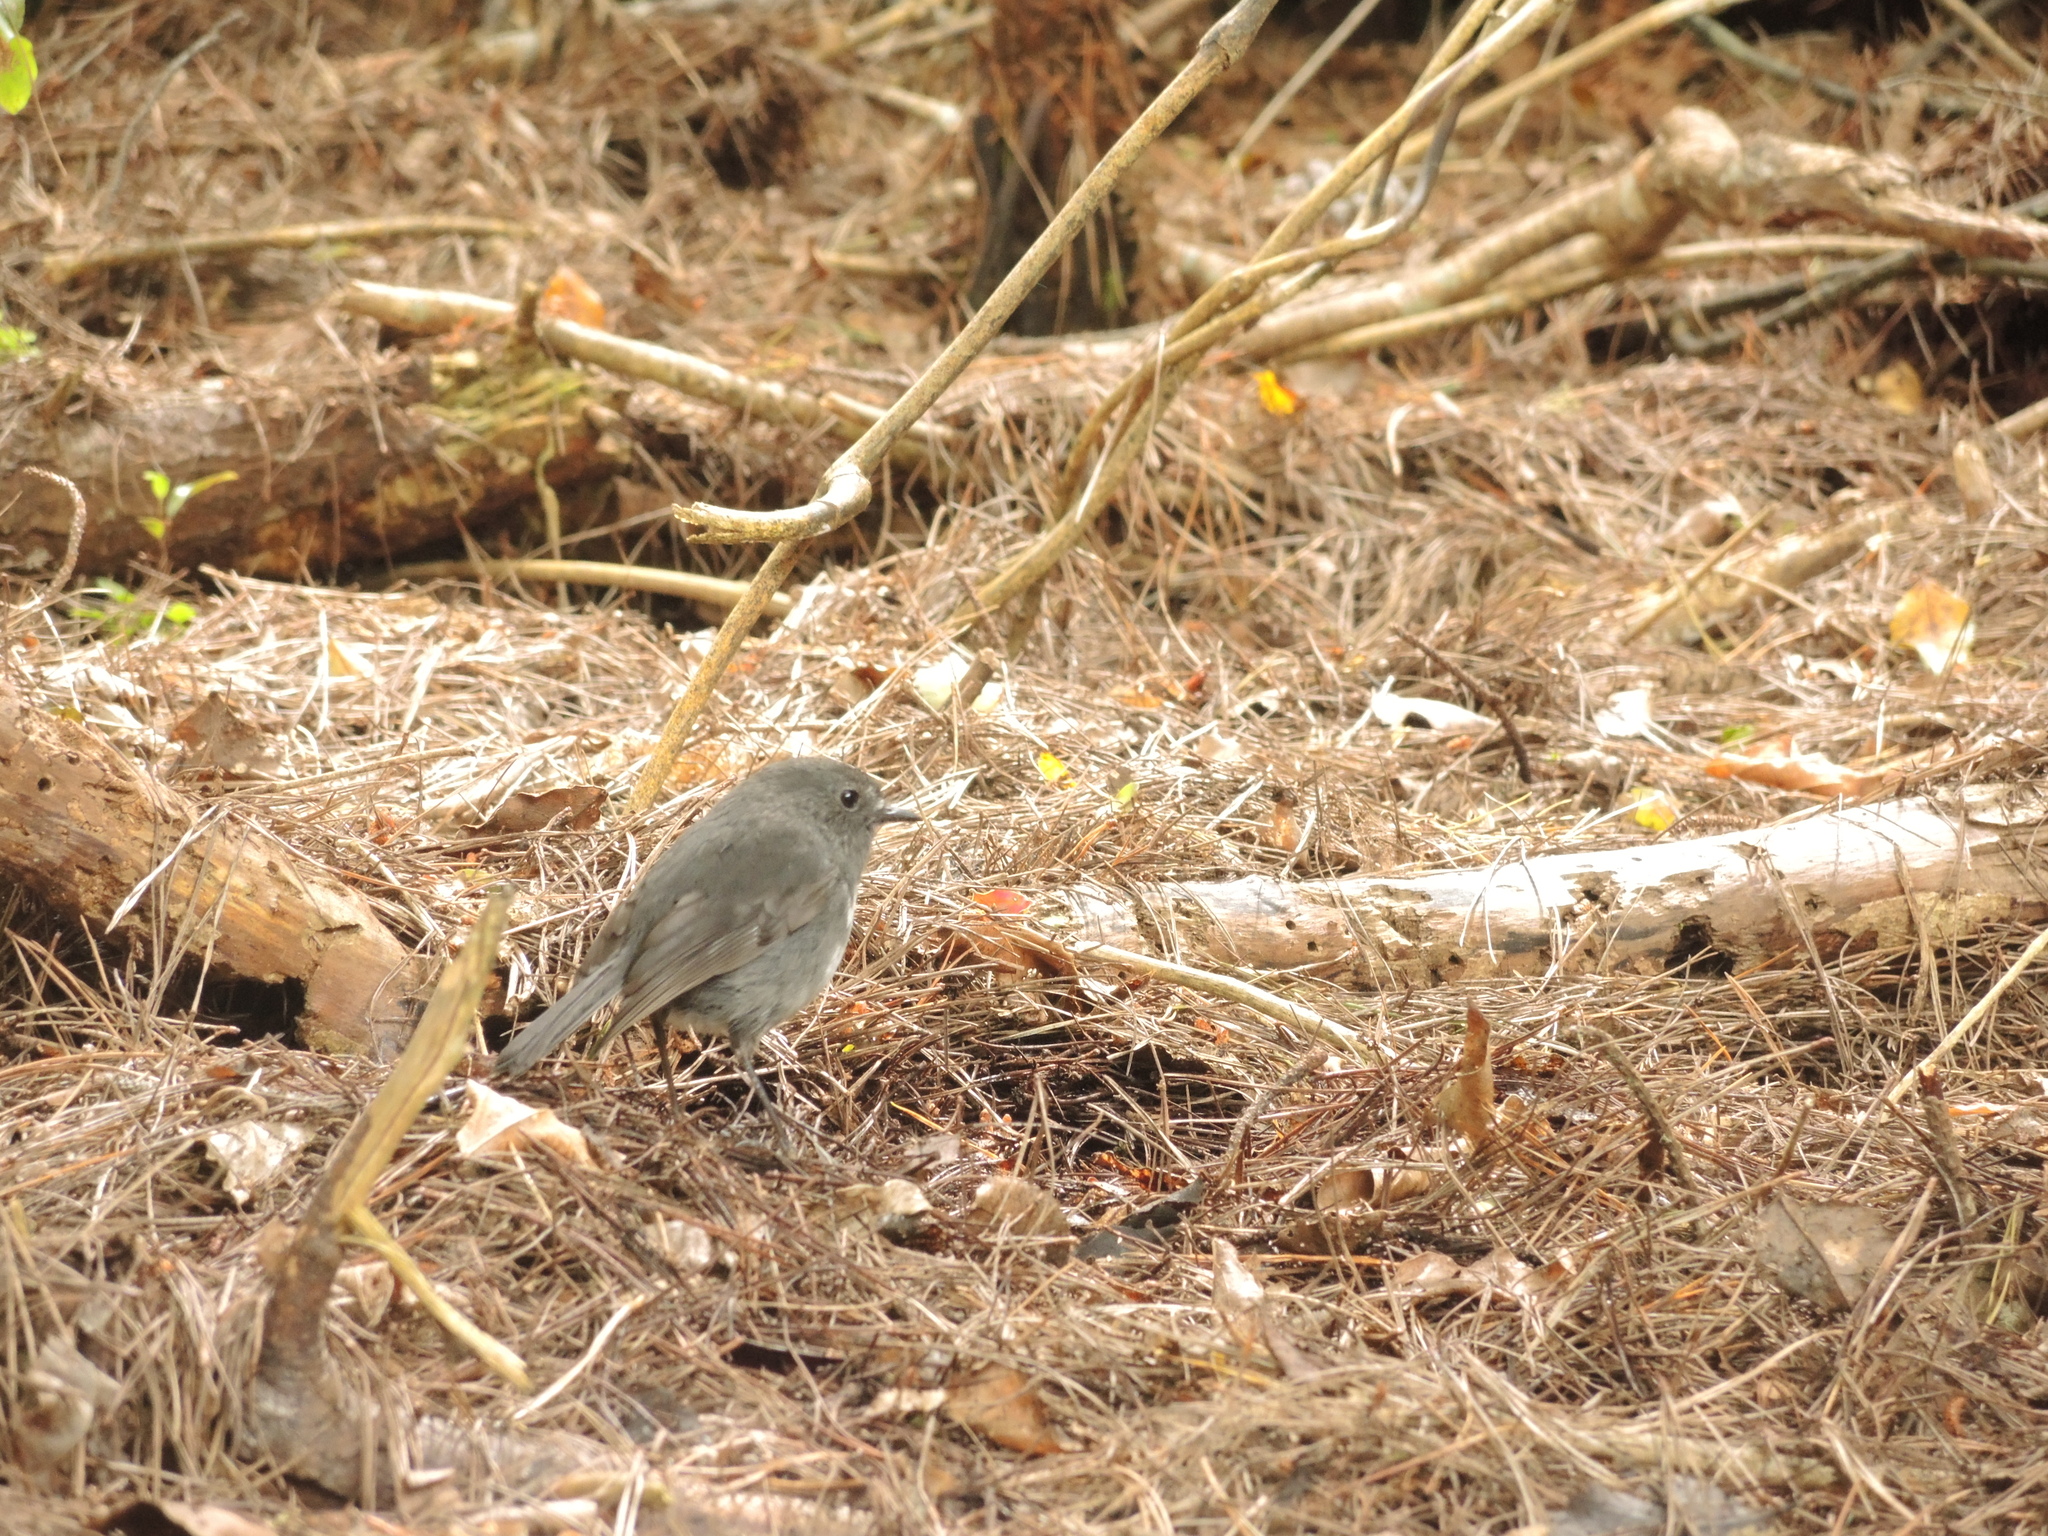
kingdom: Animalia
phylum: Chordata
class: Aves
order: Passeriformes
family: Petroicidae
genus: Petroica
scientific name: Petroica australis
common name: New zealand robin
